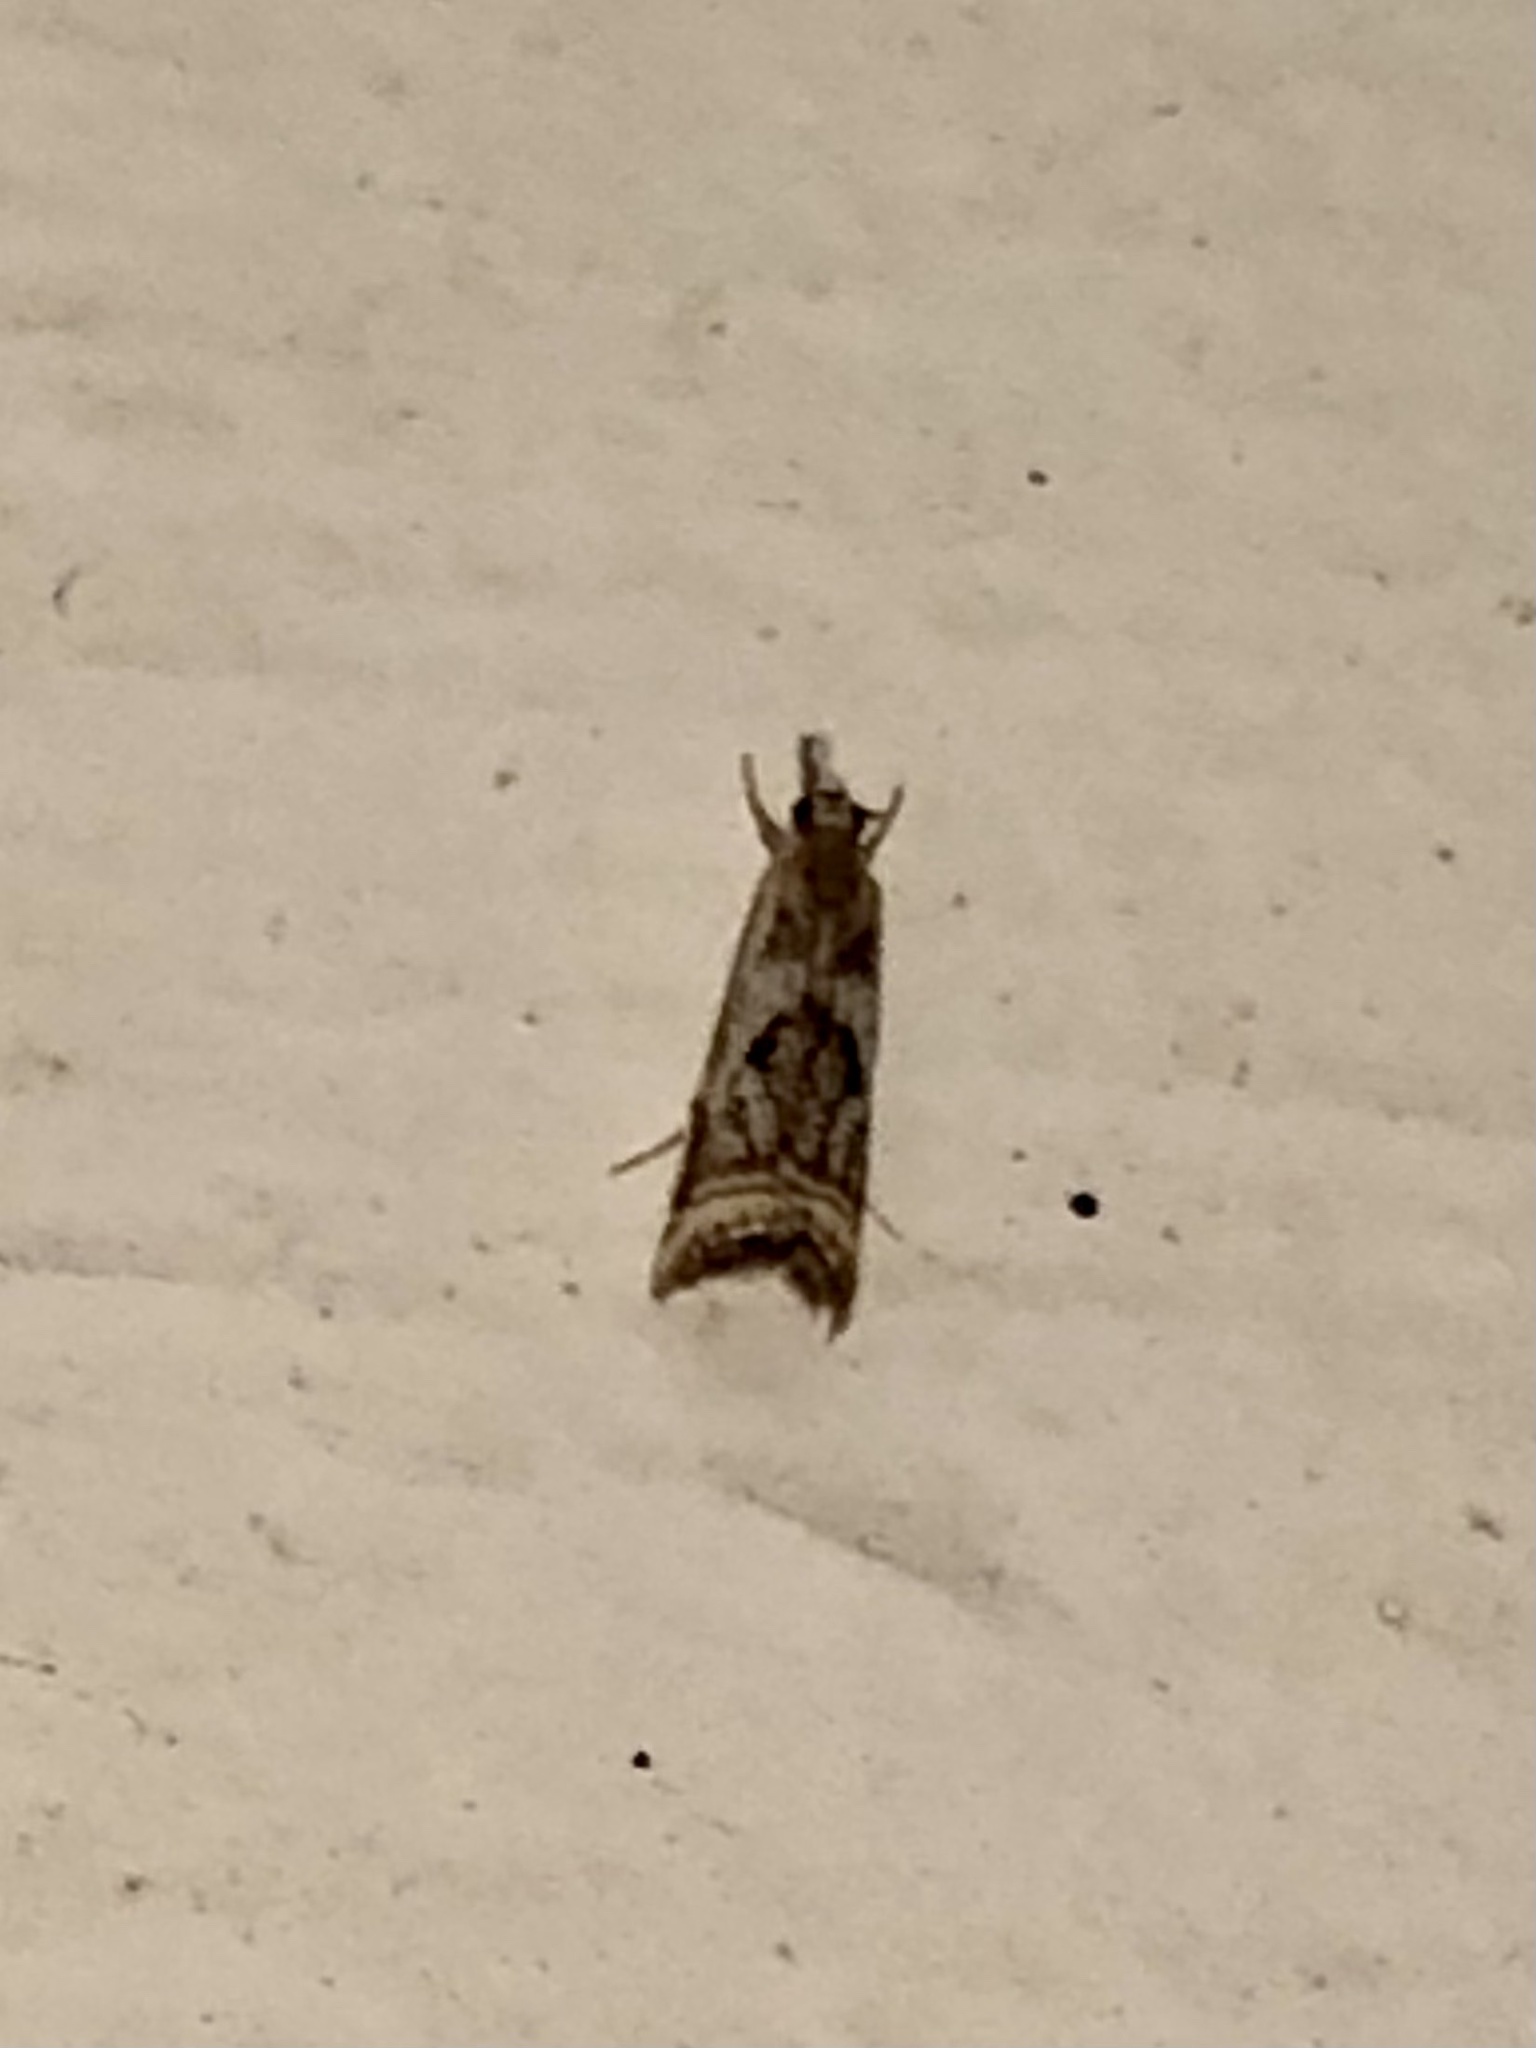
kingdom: Animalia
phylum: Arthropoda
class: Insecta
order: Lepidoptera
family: Crambidae
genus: Microcrambus
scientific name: Microcrambus elegans
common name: Elegant grass-veneer
